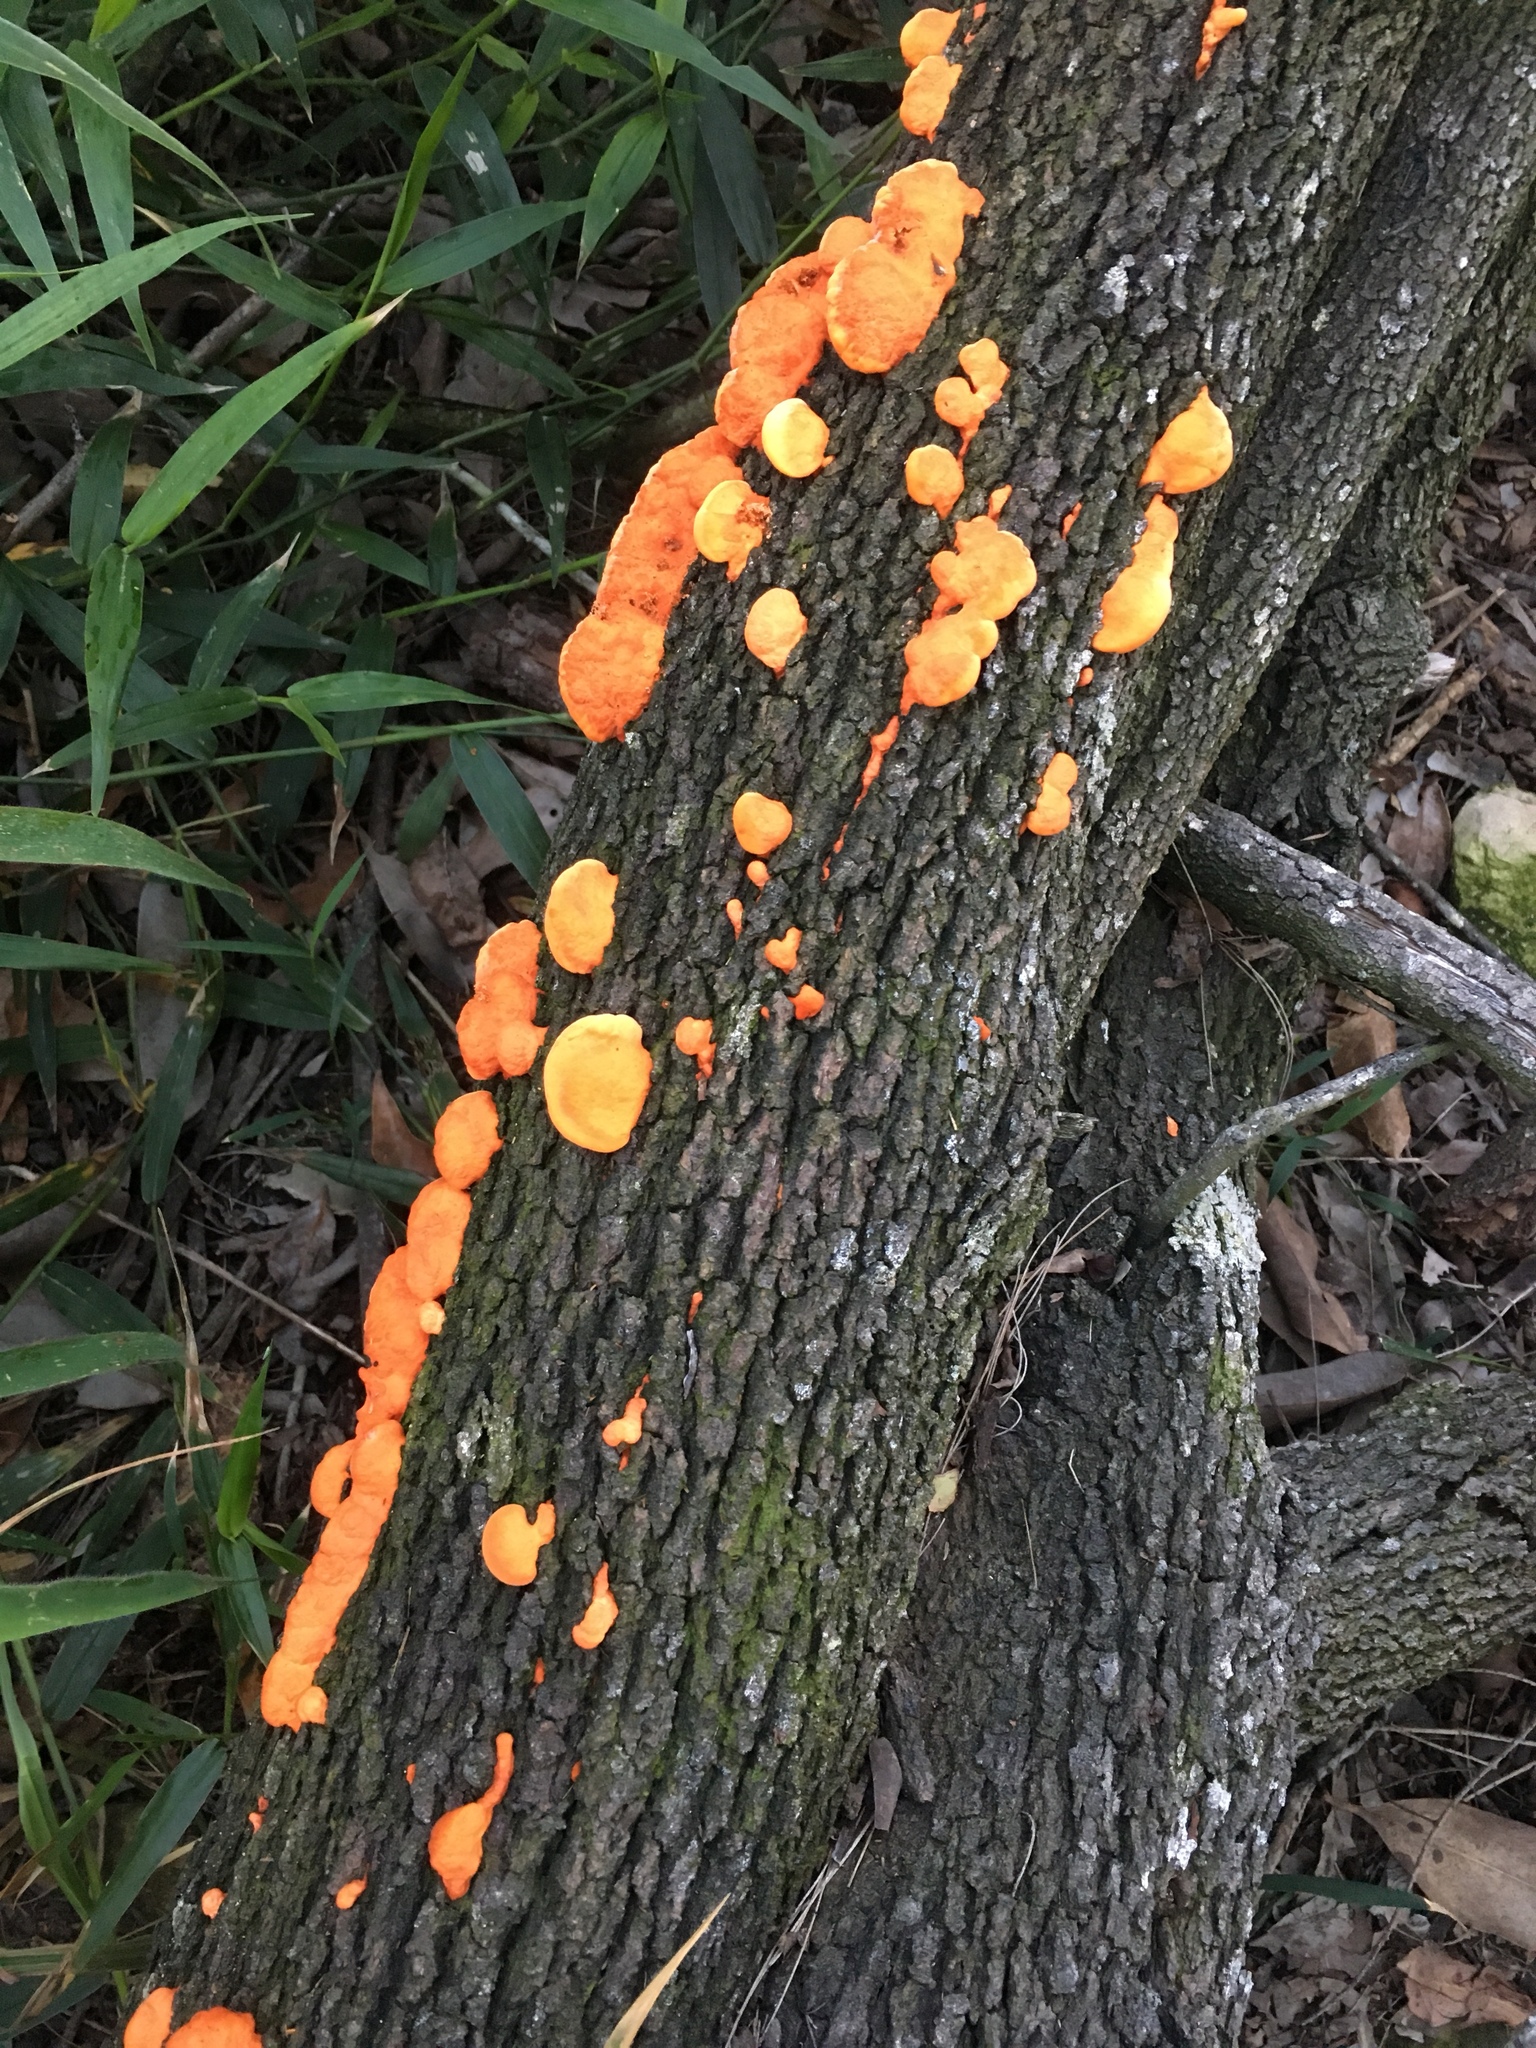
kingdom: Fungi
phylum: Basidiomycota
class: Agaricomycetes
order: Polyporales
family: Polyporaceae
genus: Trametes
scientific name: Trametes coccinea
